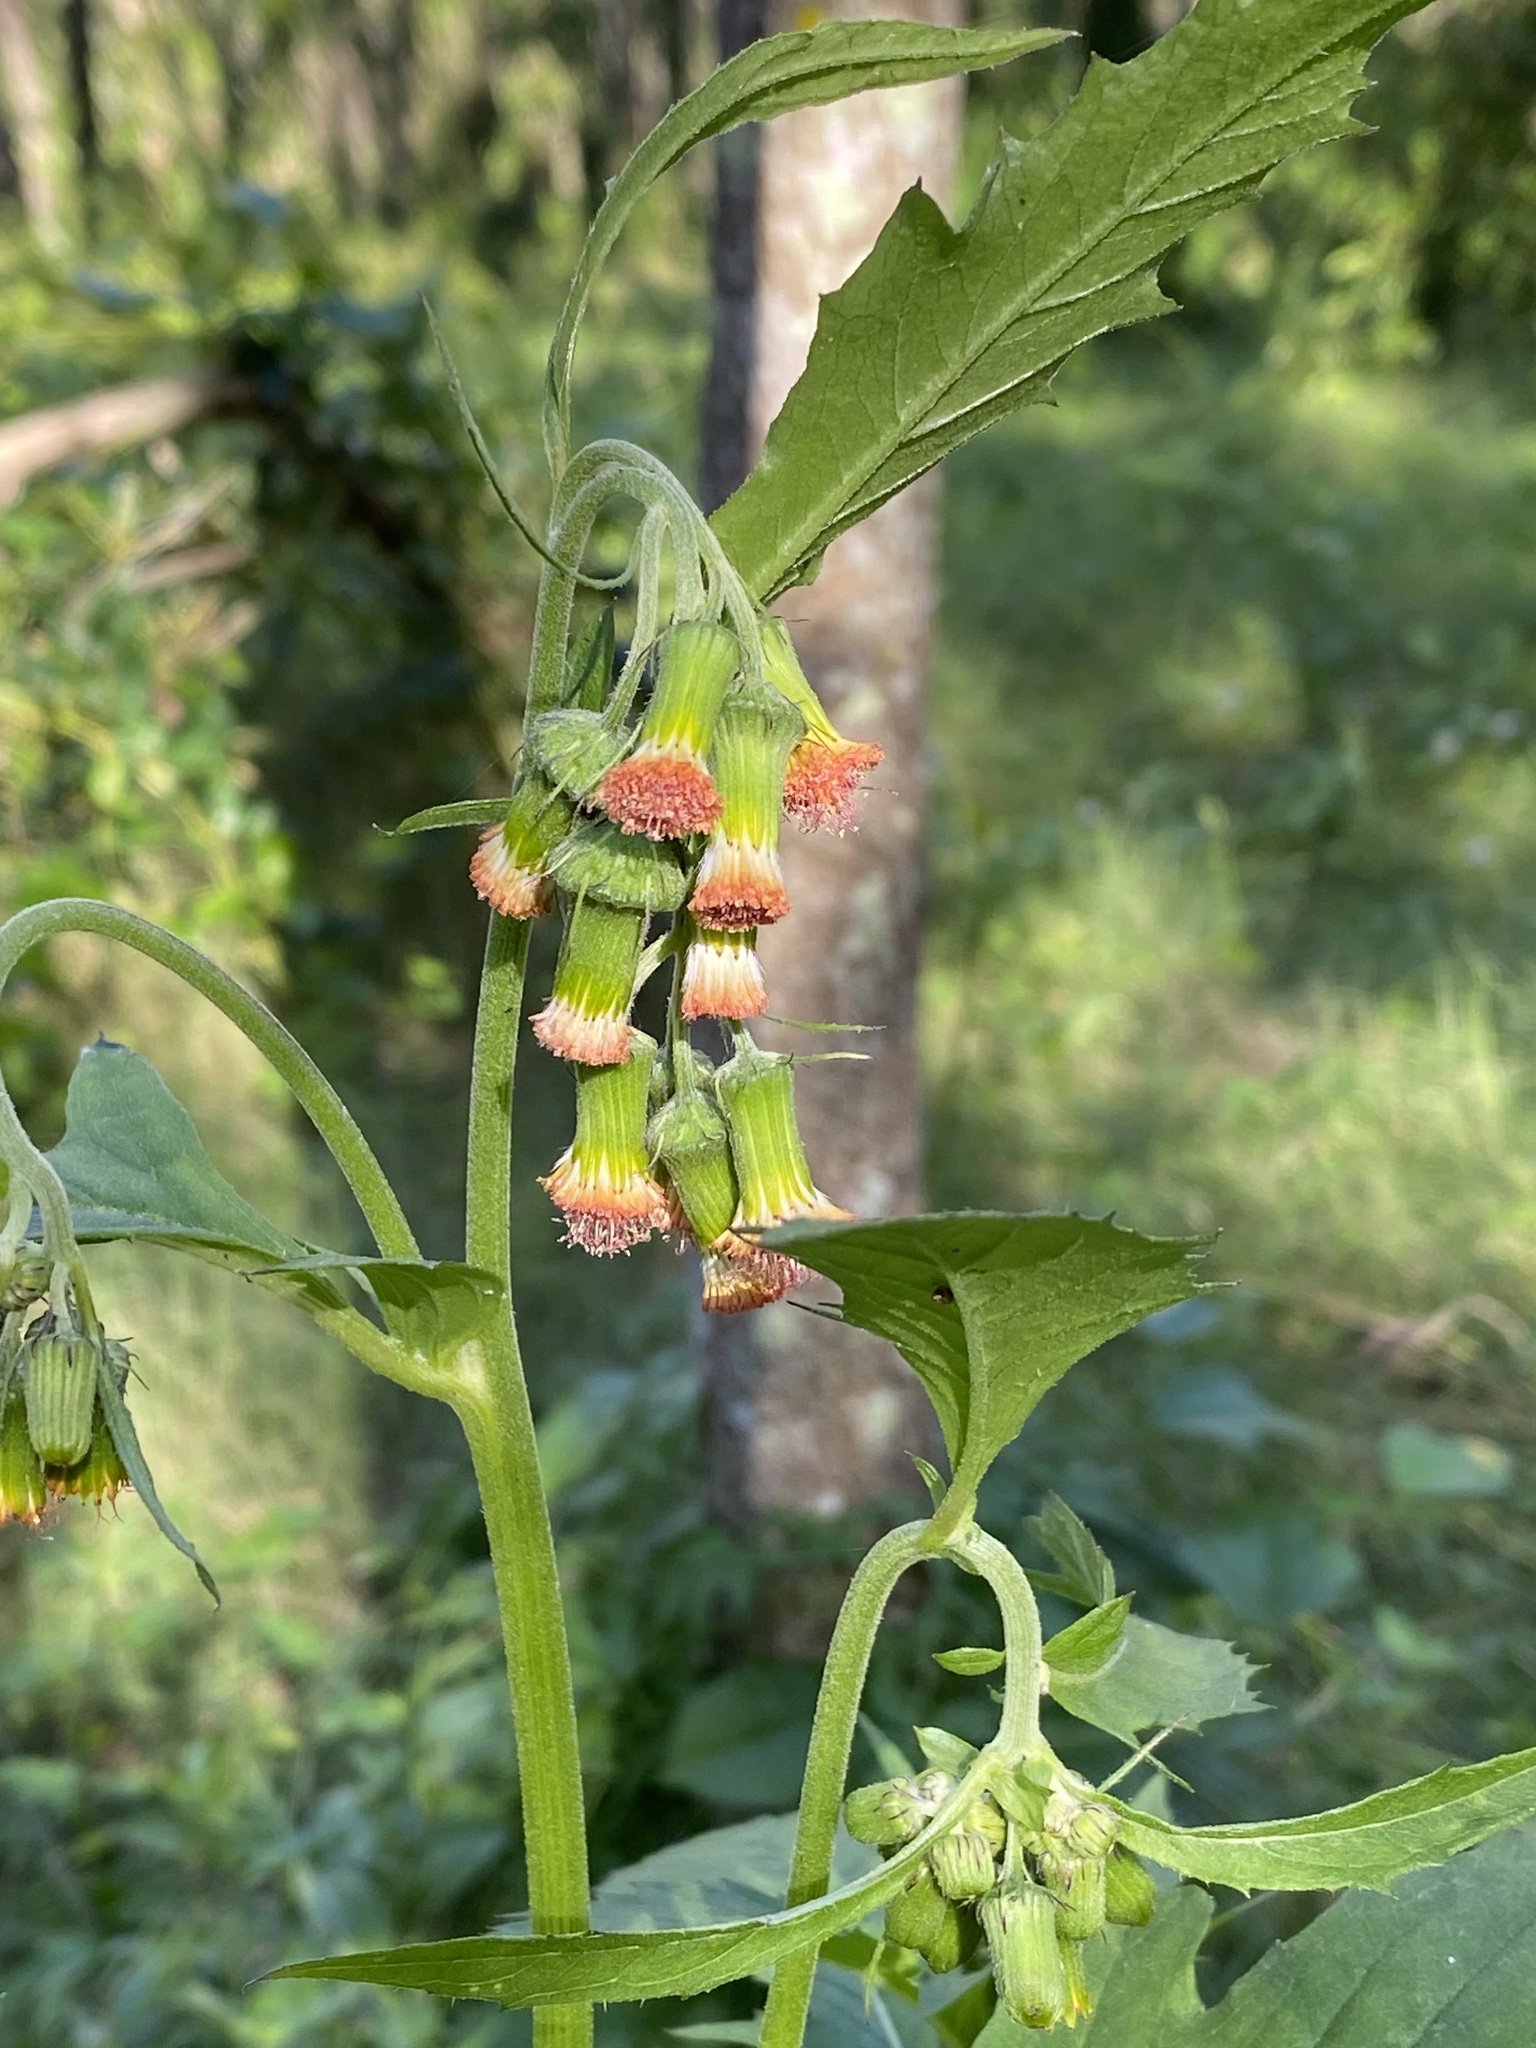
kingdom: Plantae
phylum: Tracheophyta
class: Magnoliopsida
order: Asterales
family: Asteraceae
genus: Crassocephalum
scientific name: Crassocephalum crepidioides
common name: Redflower ragleaf
